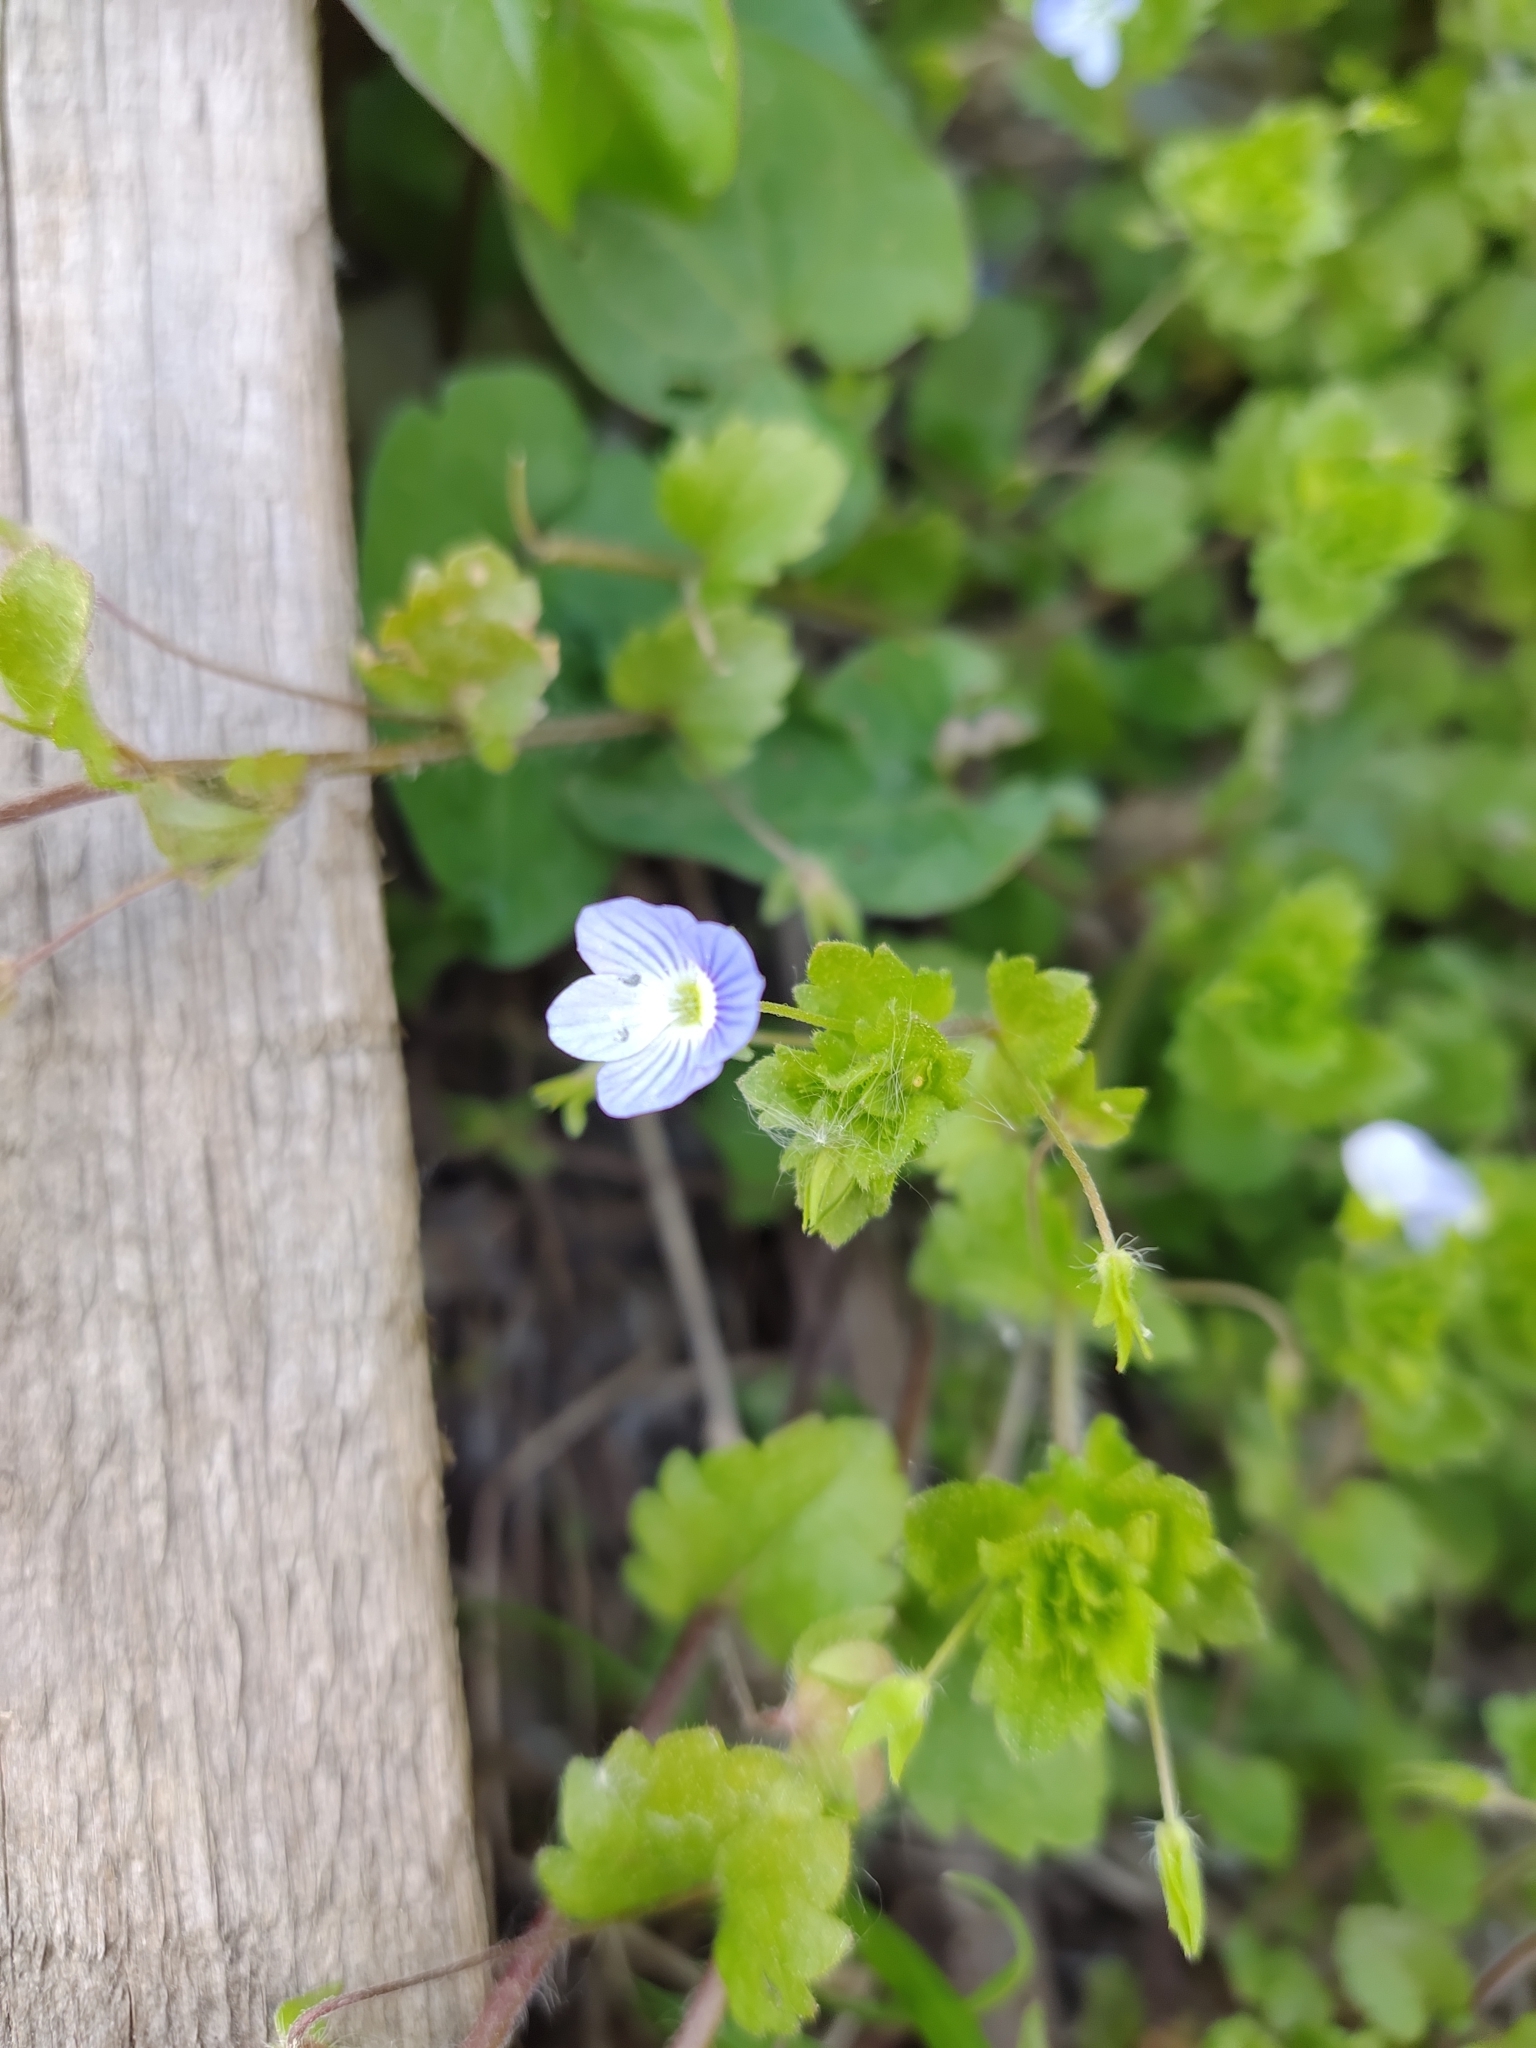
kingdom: Plantae
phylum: Tracheophyta
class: Magnoliopsida
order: Lamiales
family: Plantaginaceae
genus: Veronica
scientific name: Veronica persica
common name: Common field-speedwell
